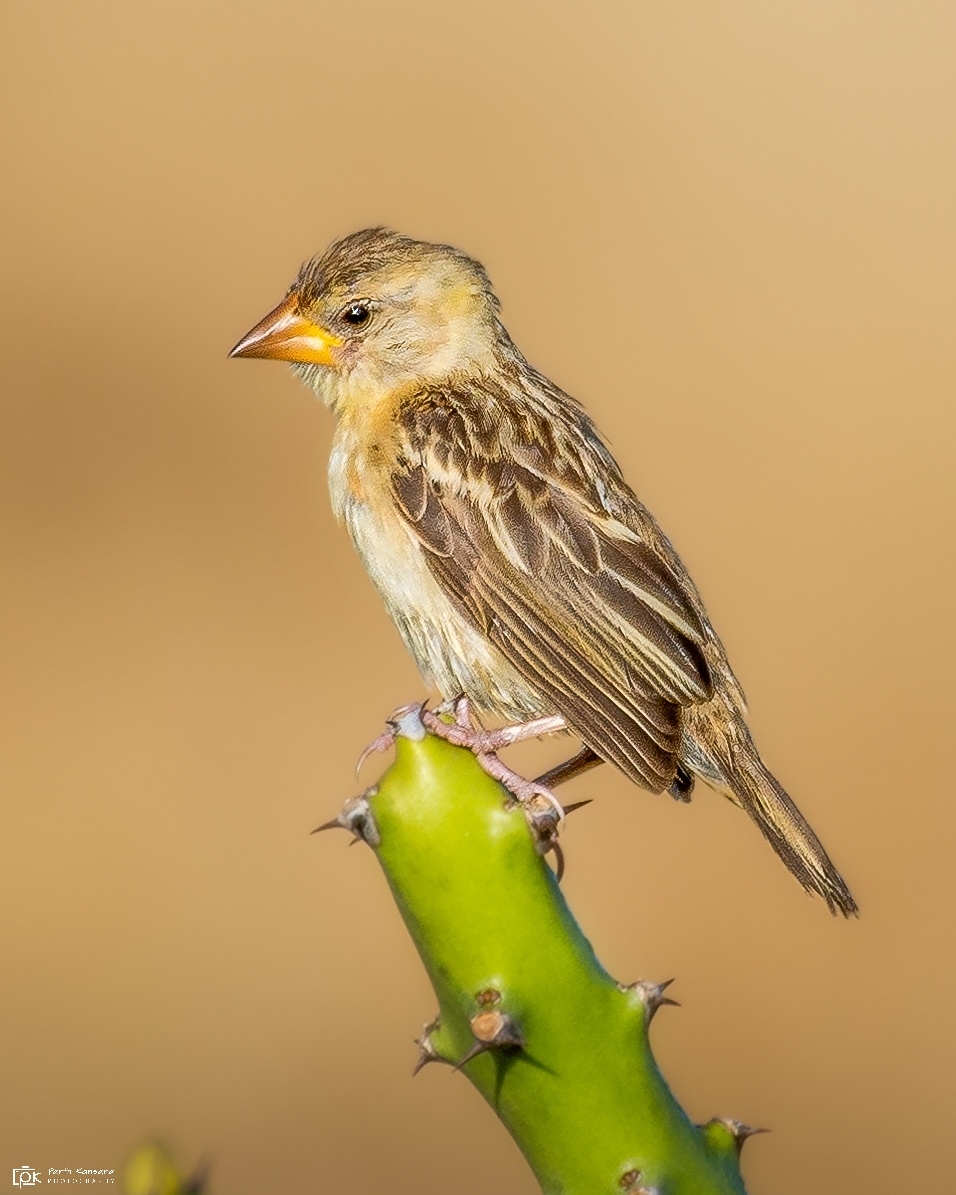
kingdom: Animalia
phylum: Chordata
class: Aves
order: Passeriformes
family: Ploceidae
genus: Ploceus
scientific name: Ploceus philippinus
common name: Baya weaver
